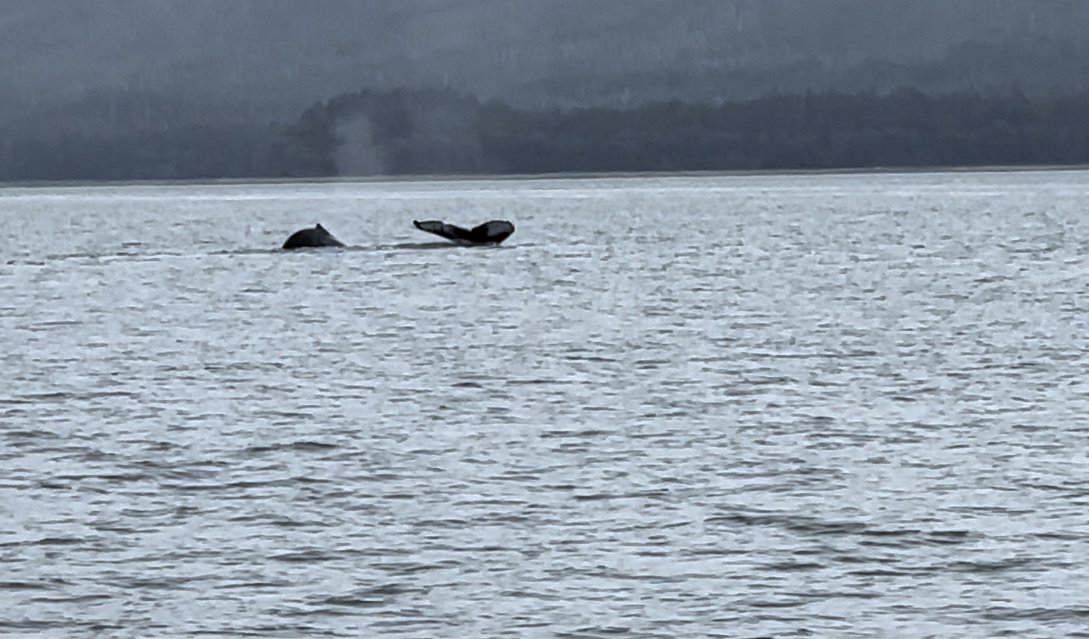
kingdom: Animalia
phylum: Chordata
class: Mammalia
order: Cetacea
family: Balaenopteridae
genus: Megaptera
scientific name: Megaptera novaeangliae
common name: Humpback whale
